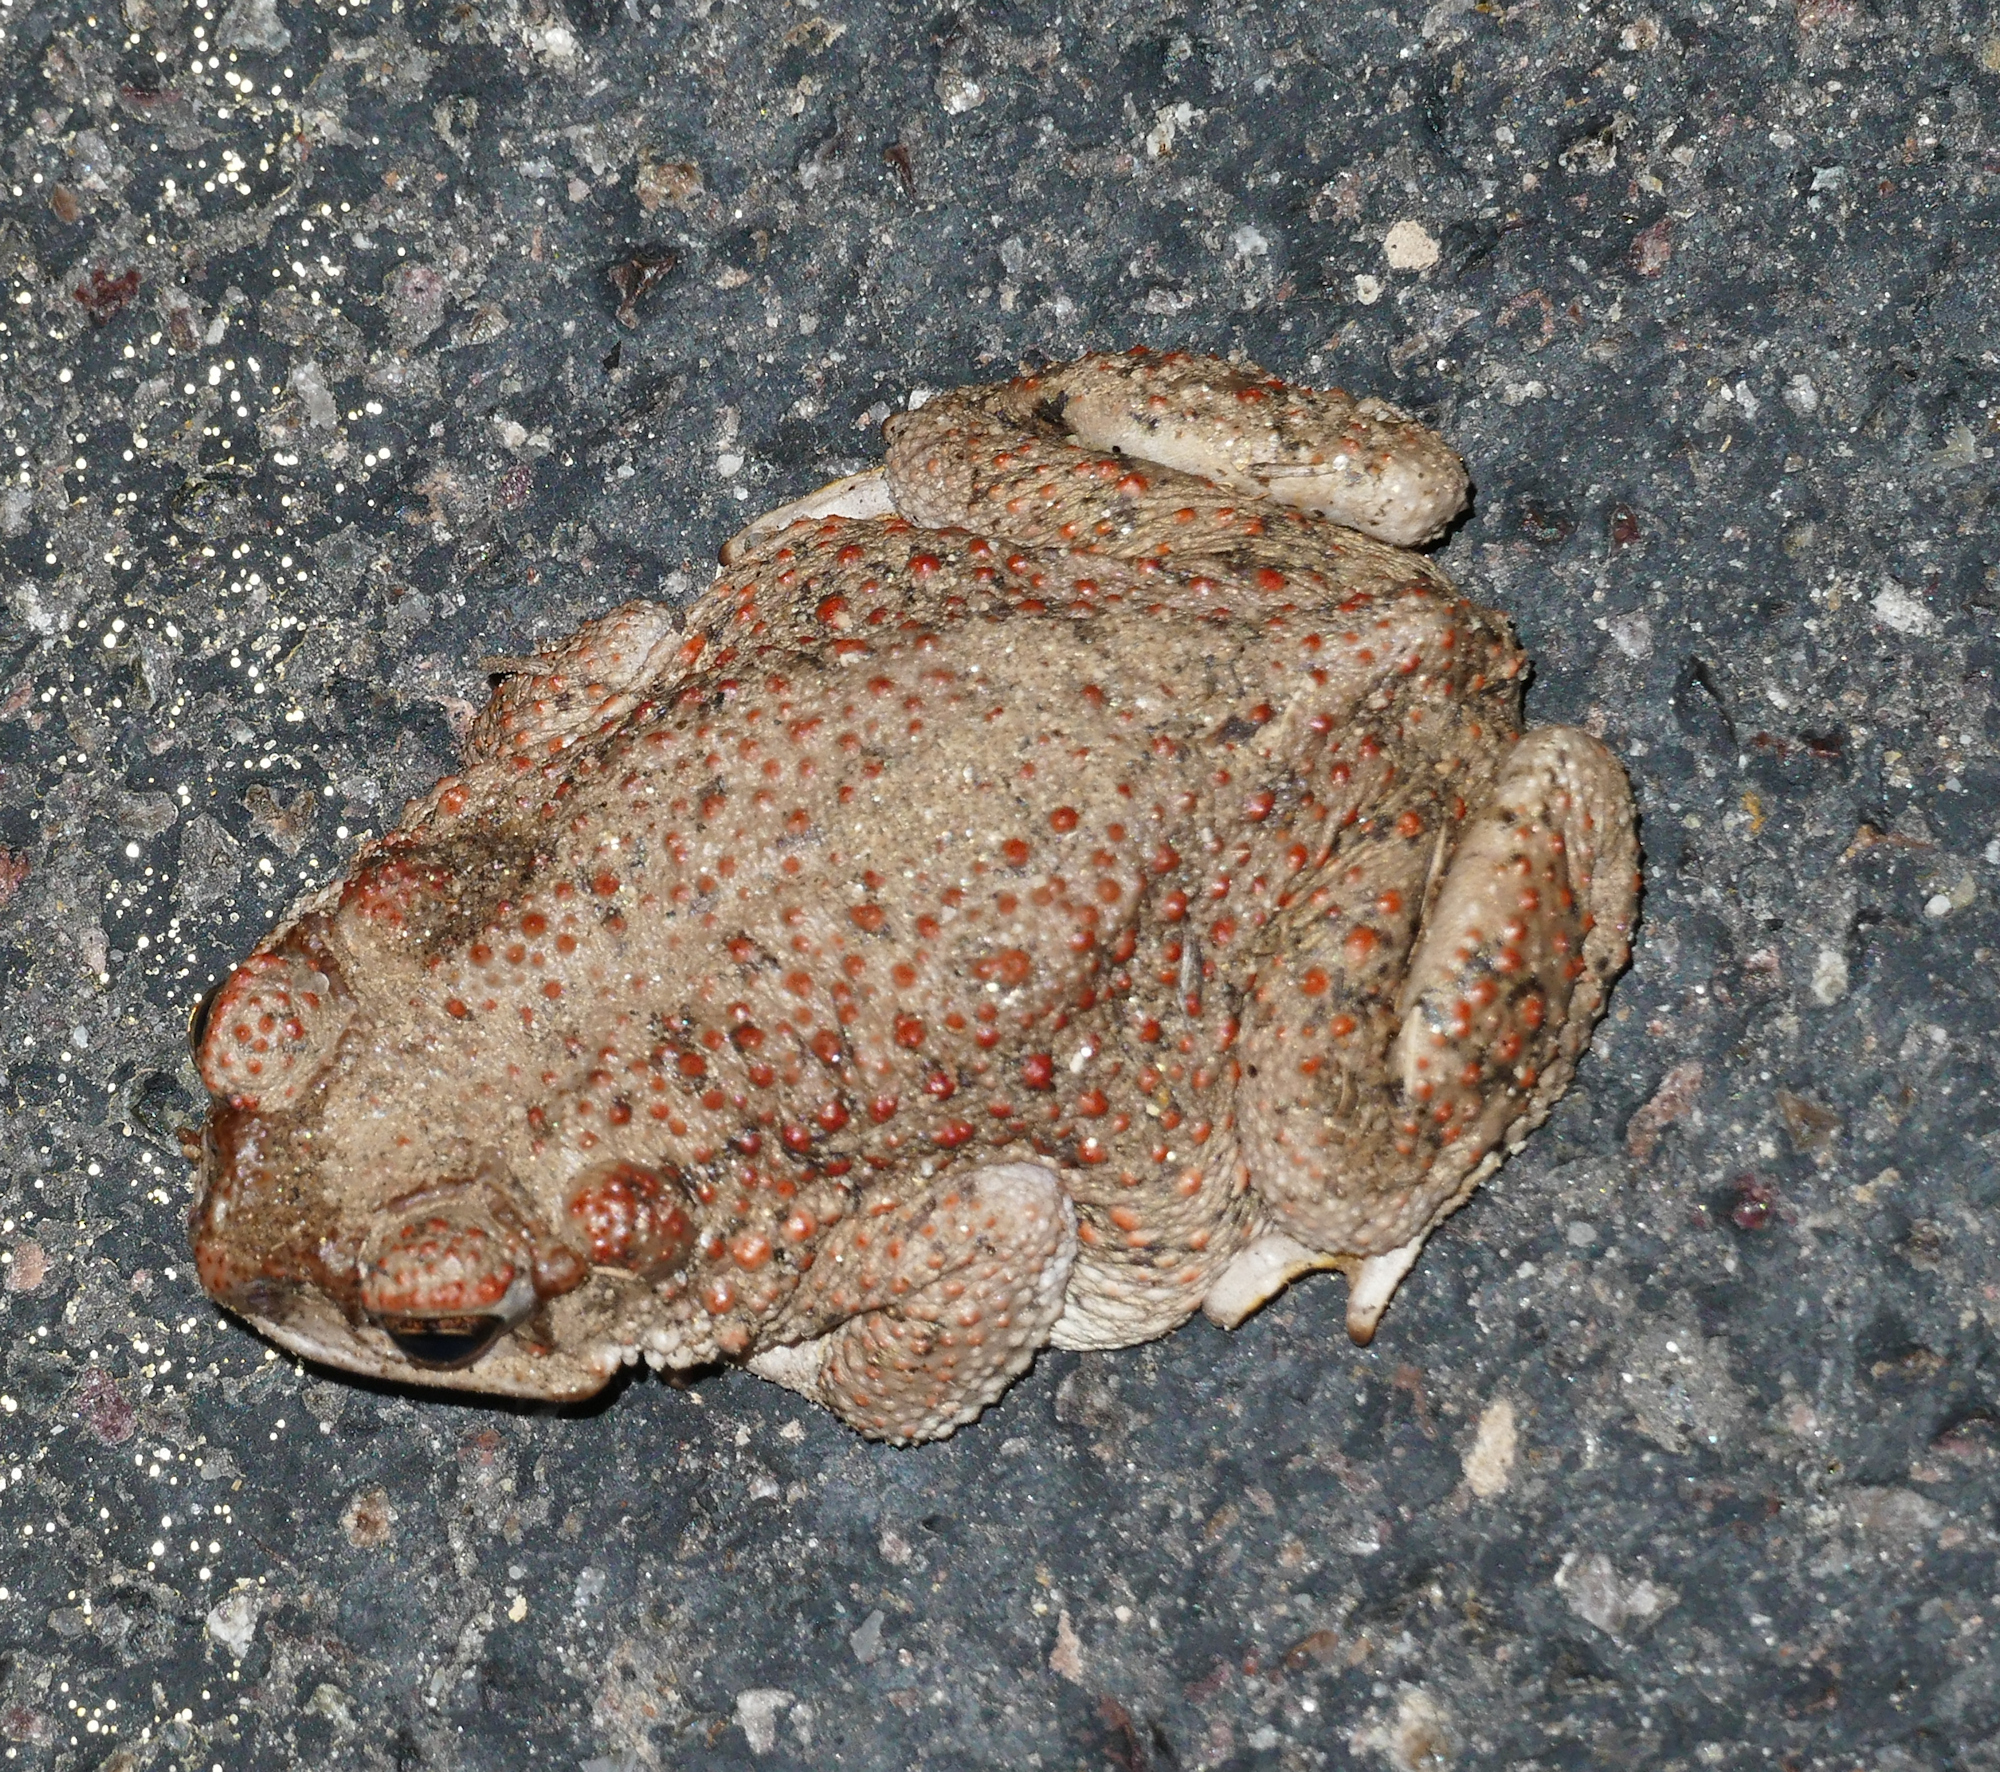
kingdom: Animalia
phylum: Chordata
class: Amphibia
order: Anura
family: Bufonidae
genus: Anaxyrus
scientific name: Anaxyrus punctatus
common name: Red-spotted toad
